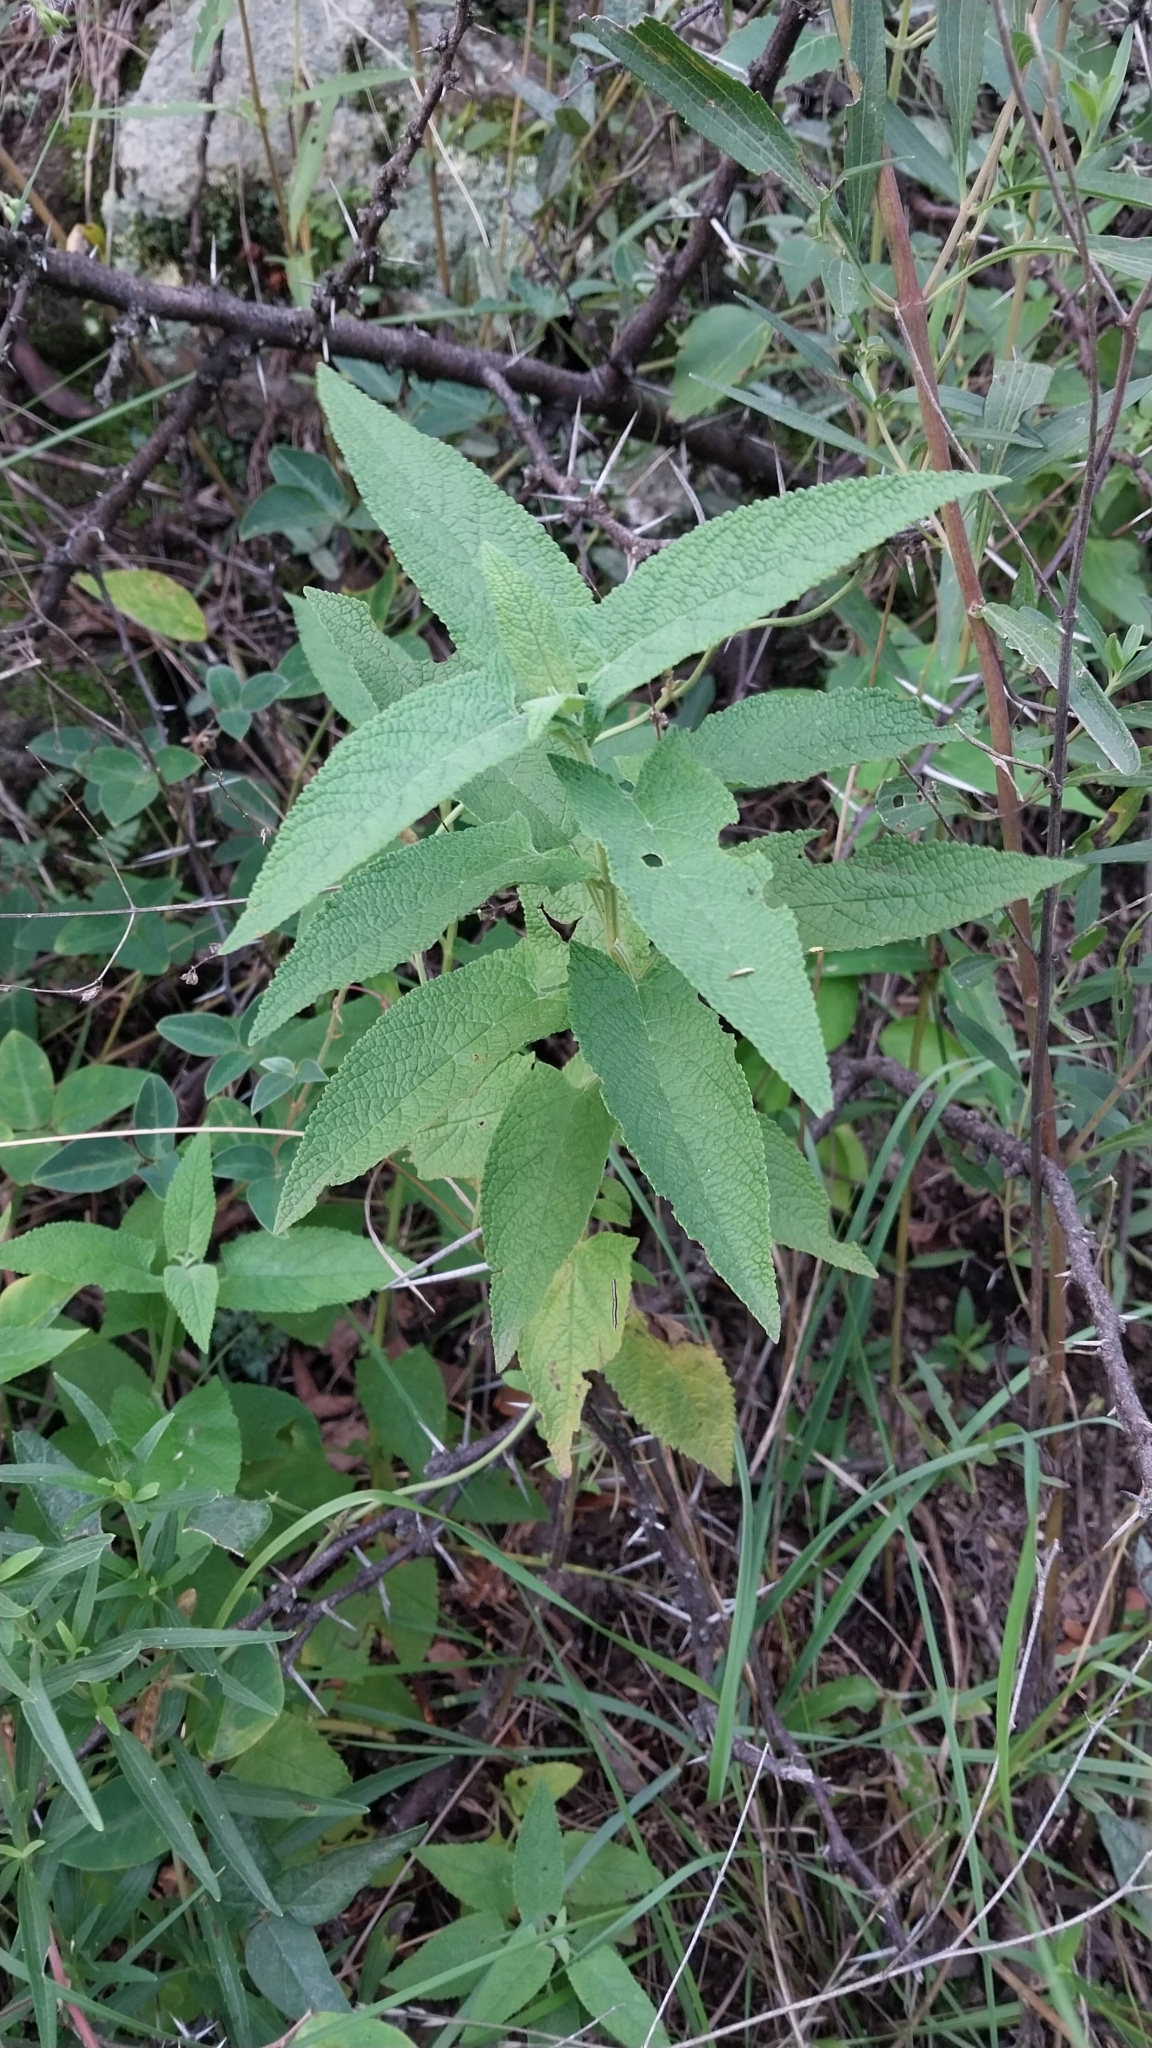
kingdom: Plantae
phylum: Tracheophyta
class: Magnoliopsida
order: Lamiales
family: Lamiaceae
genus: Lepechinia
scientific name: Lepechinia floribunda
